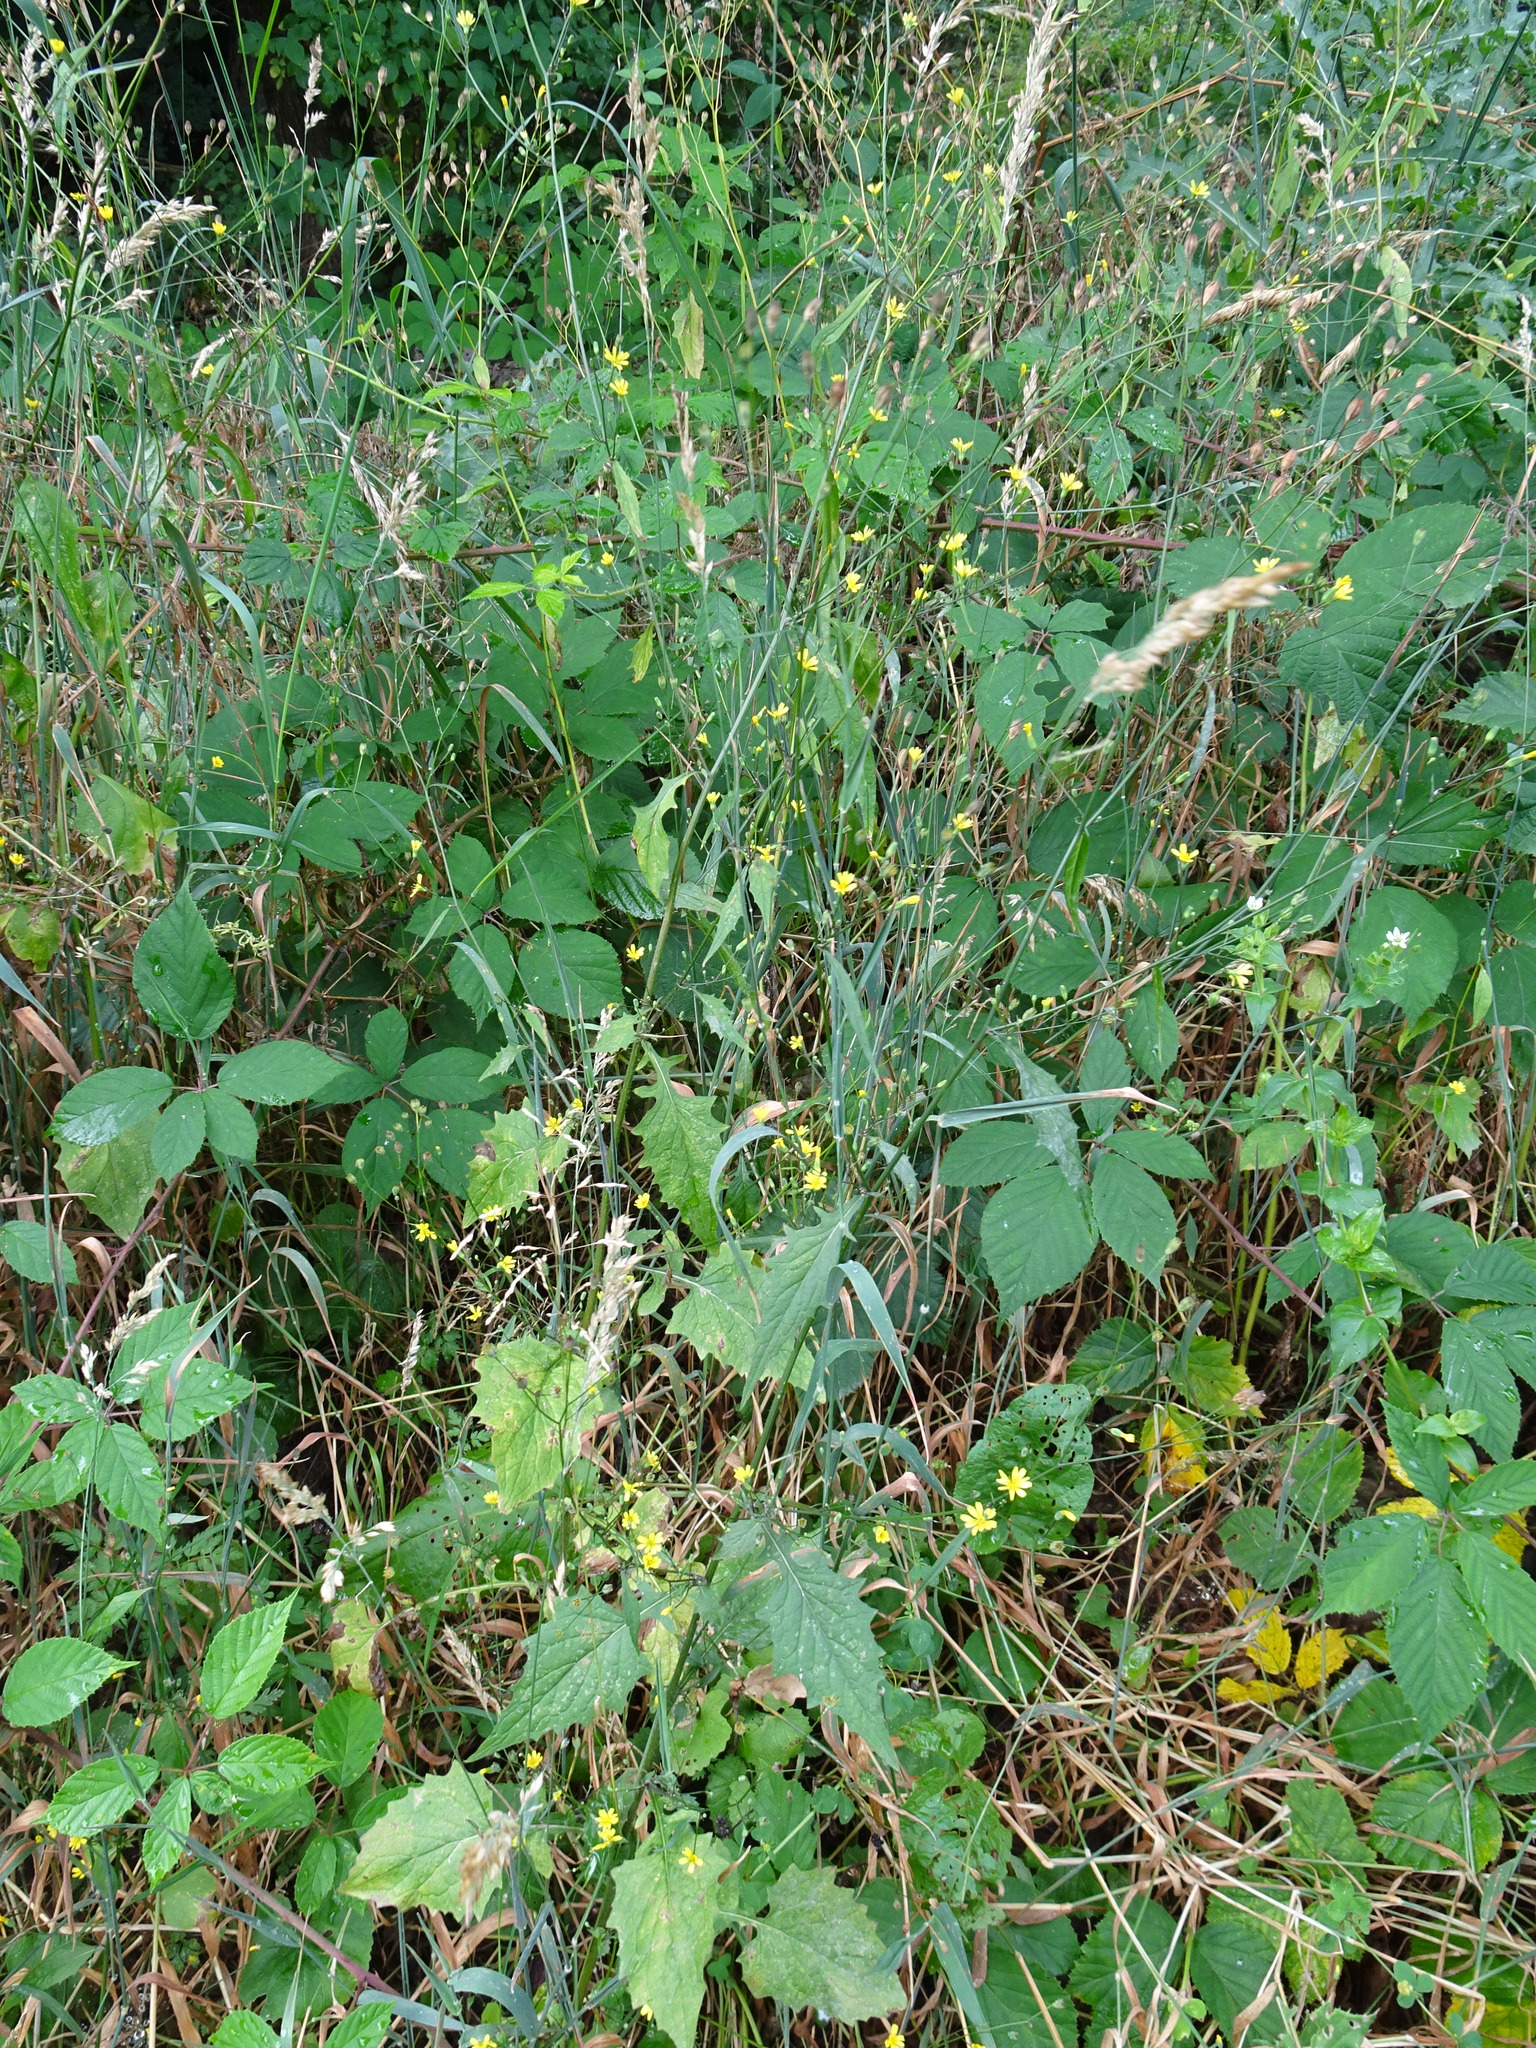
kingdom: Plantae
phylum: Tracheophyta
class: Magnoliopsida
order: Asterales
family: Asteraceae
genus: Lapsana
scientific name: Lapsana communis
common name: Nipplewort
